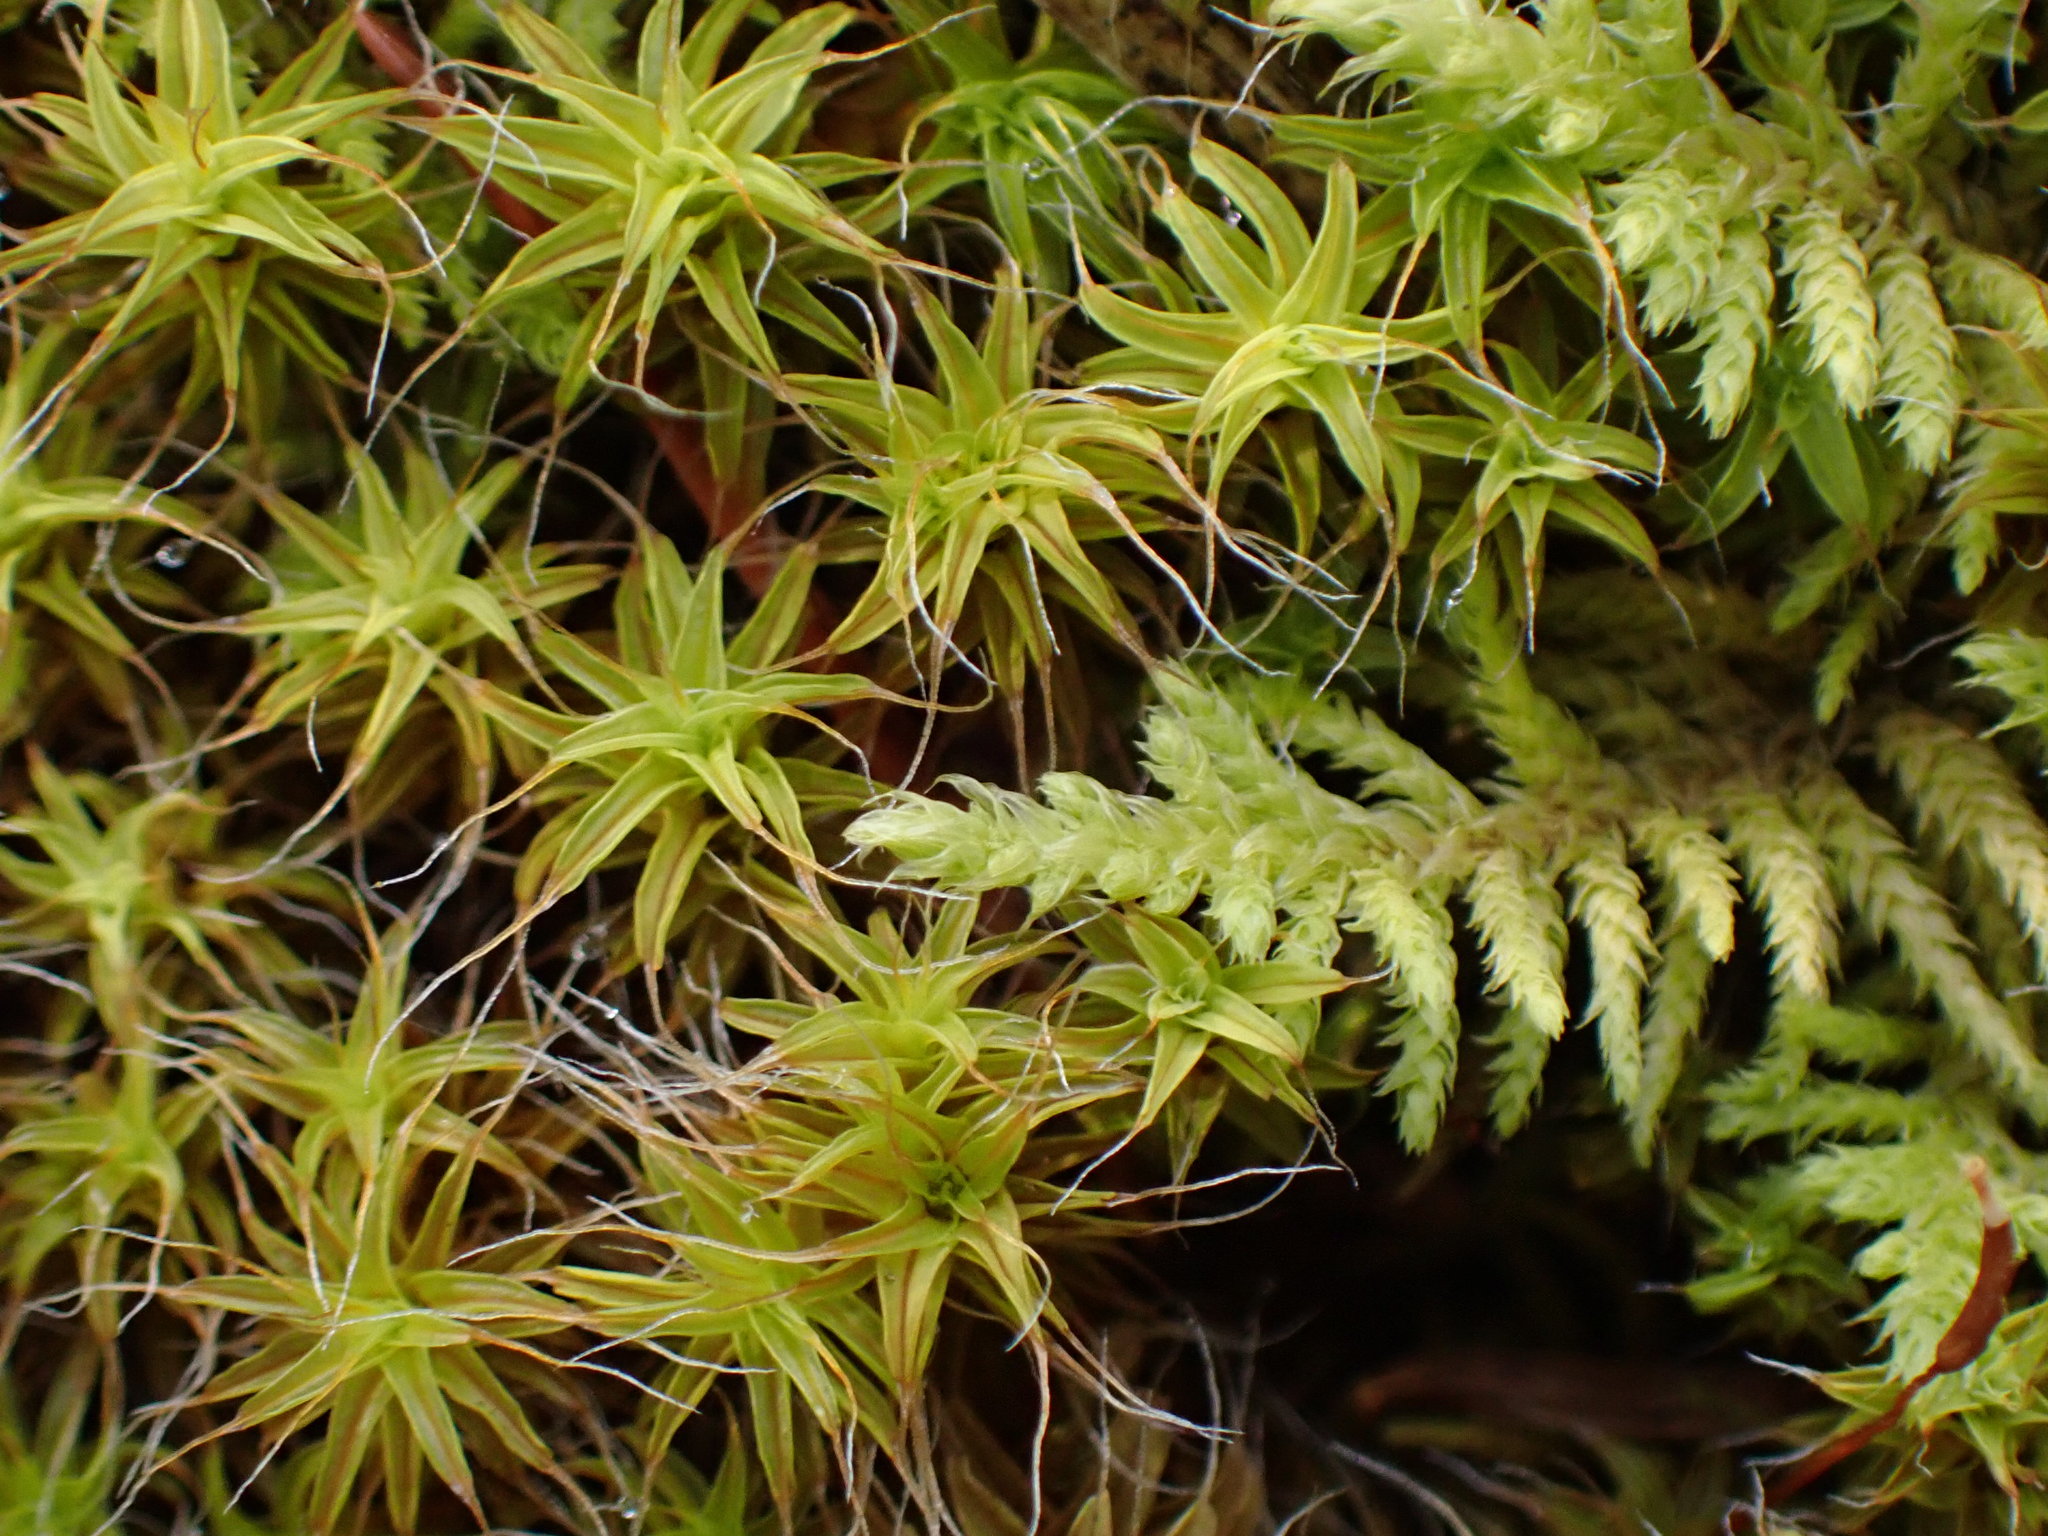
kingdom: Plantae
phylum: Bryophyta
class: Bryopsida
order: Pottiales
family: Pottiaceae
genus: Syntrichia
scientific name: Syntrichia ruralis
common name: Sidewalk screw moss
